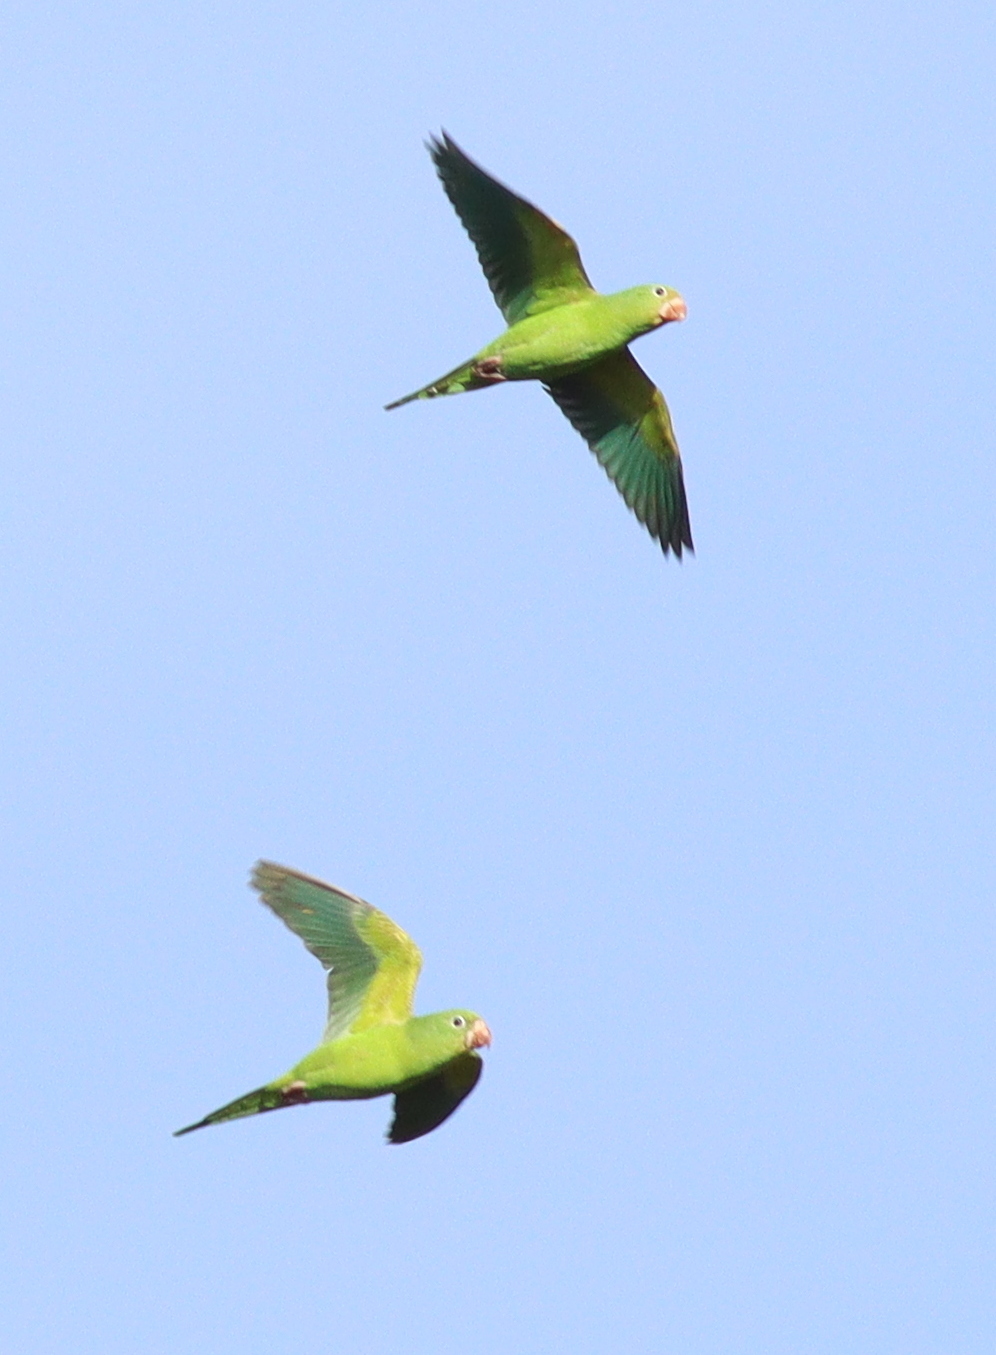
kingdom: Animalia
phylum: Chordata
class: Aves
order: Psittaciformes
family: Psittacidae
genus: Brotogeris
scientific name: Brotogeris chiriri
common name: Yellow-chevroned parakeet
